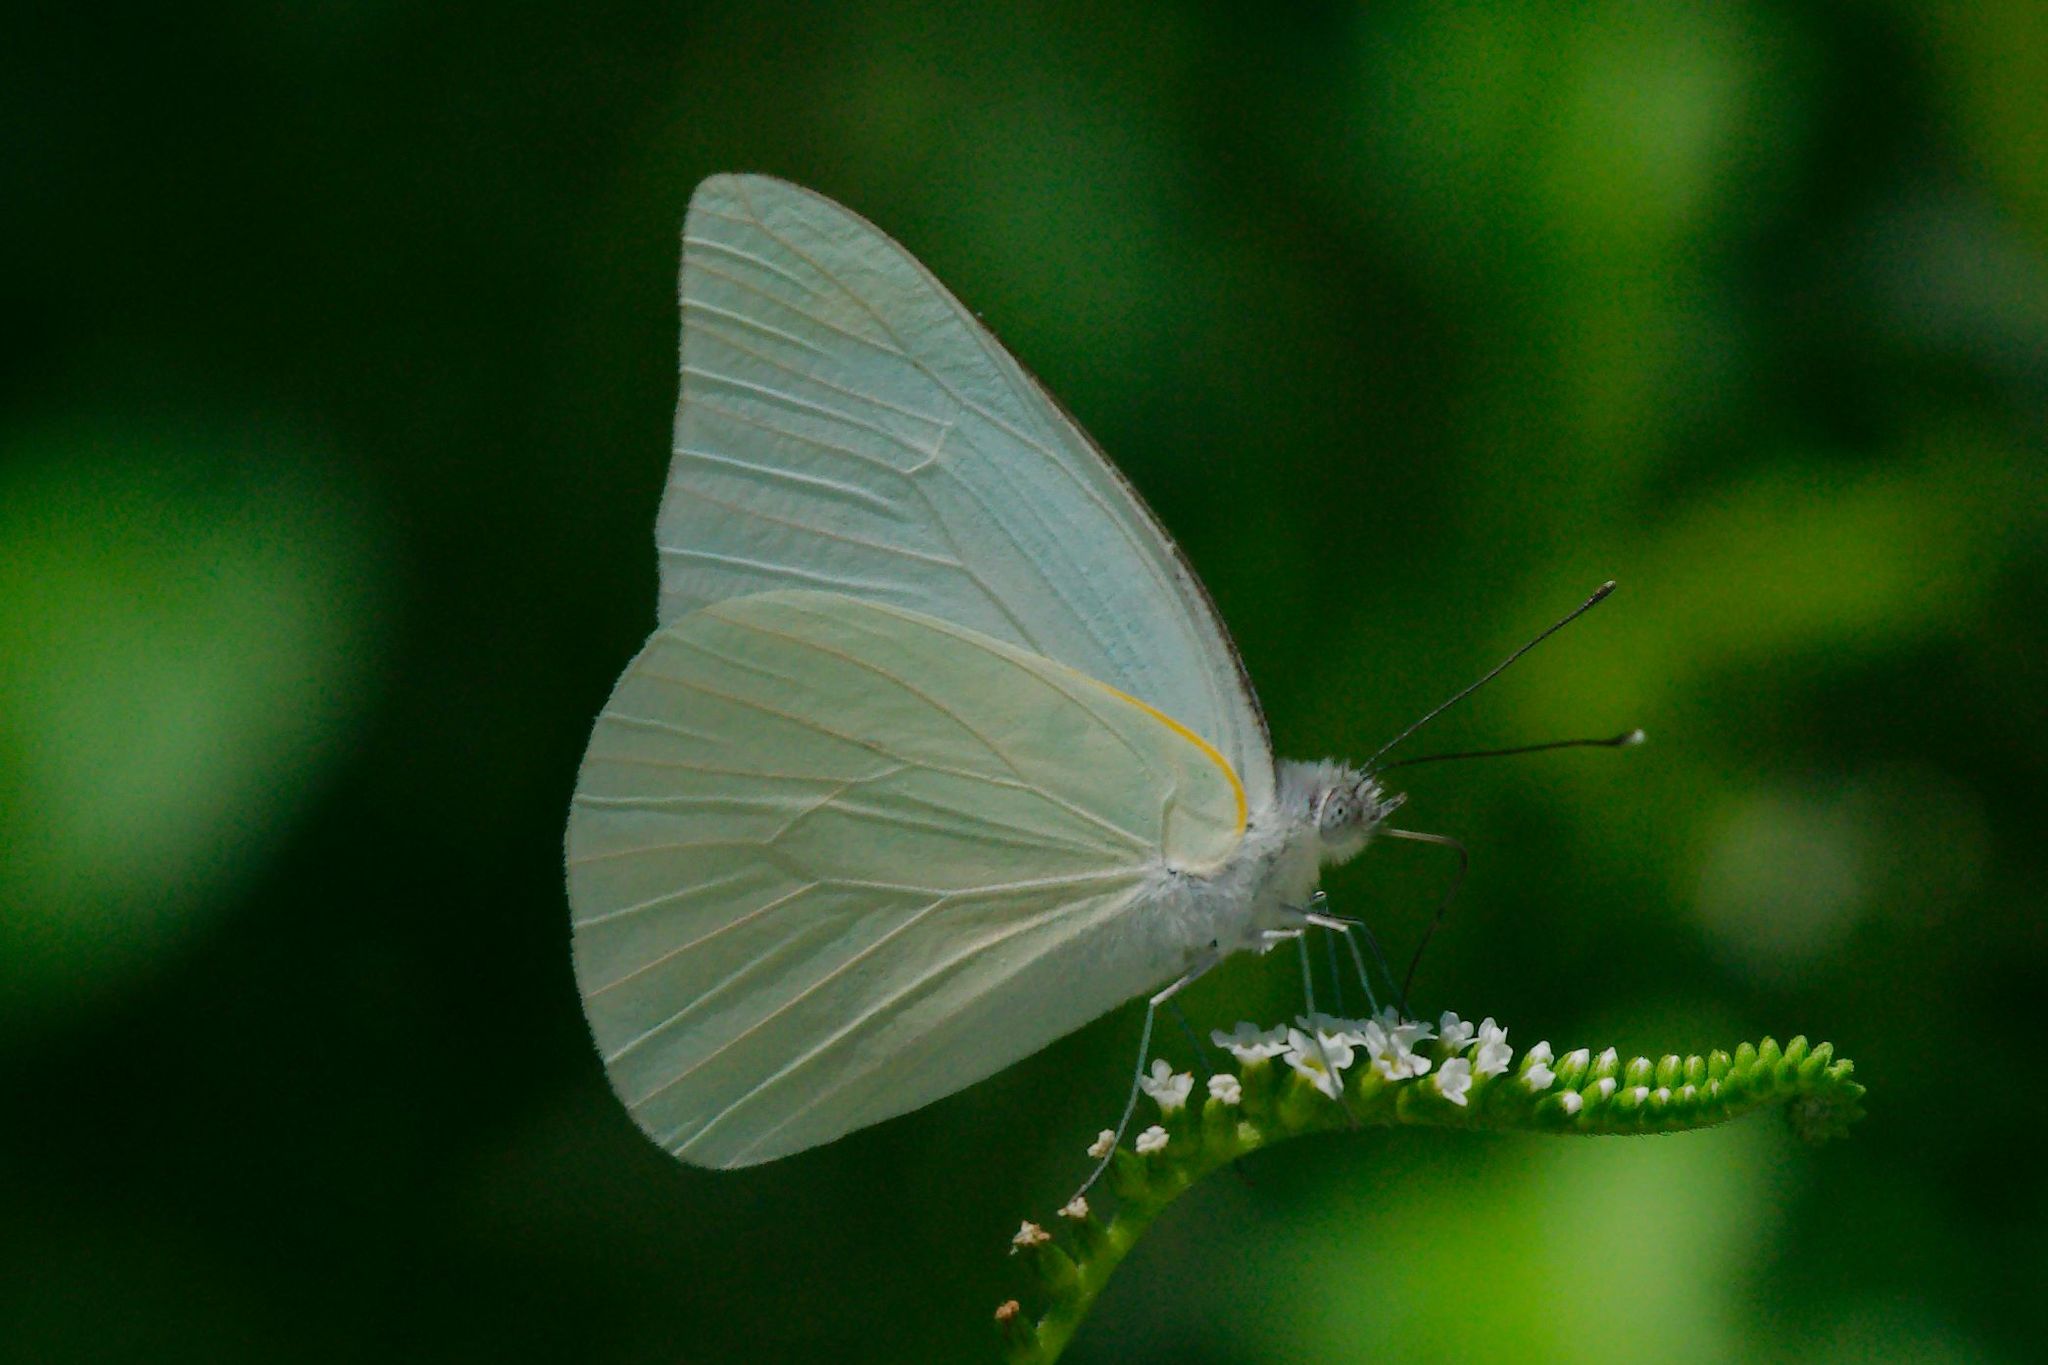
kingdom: Animalia
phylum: Arthropoda
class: Insecta
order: Lepidoptera
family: Pieridae
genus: Glutophrissa
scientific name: Glutophrissa drusilla
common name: Florida white
